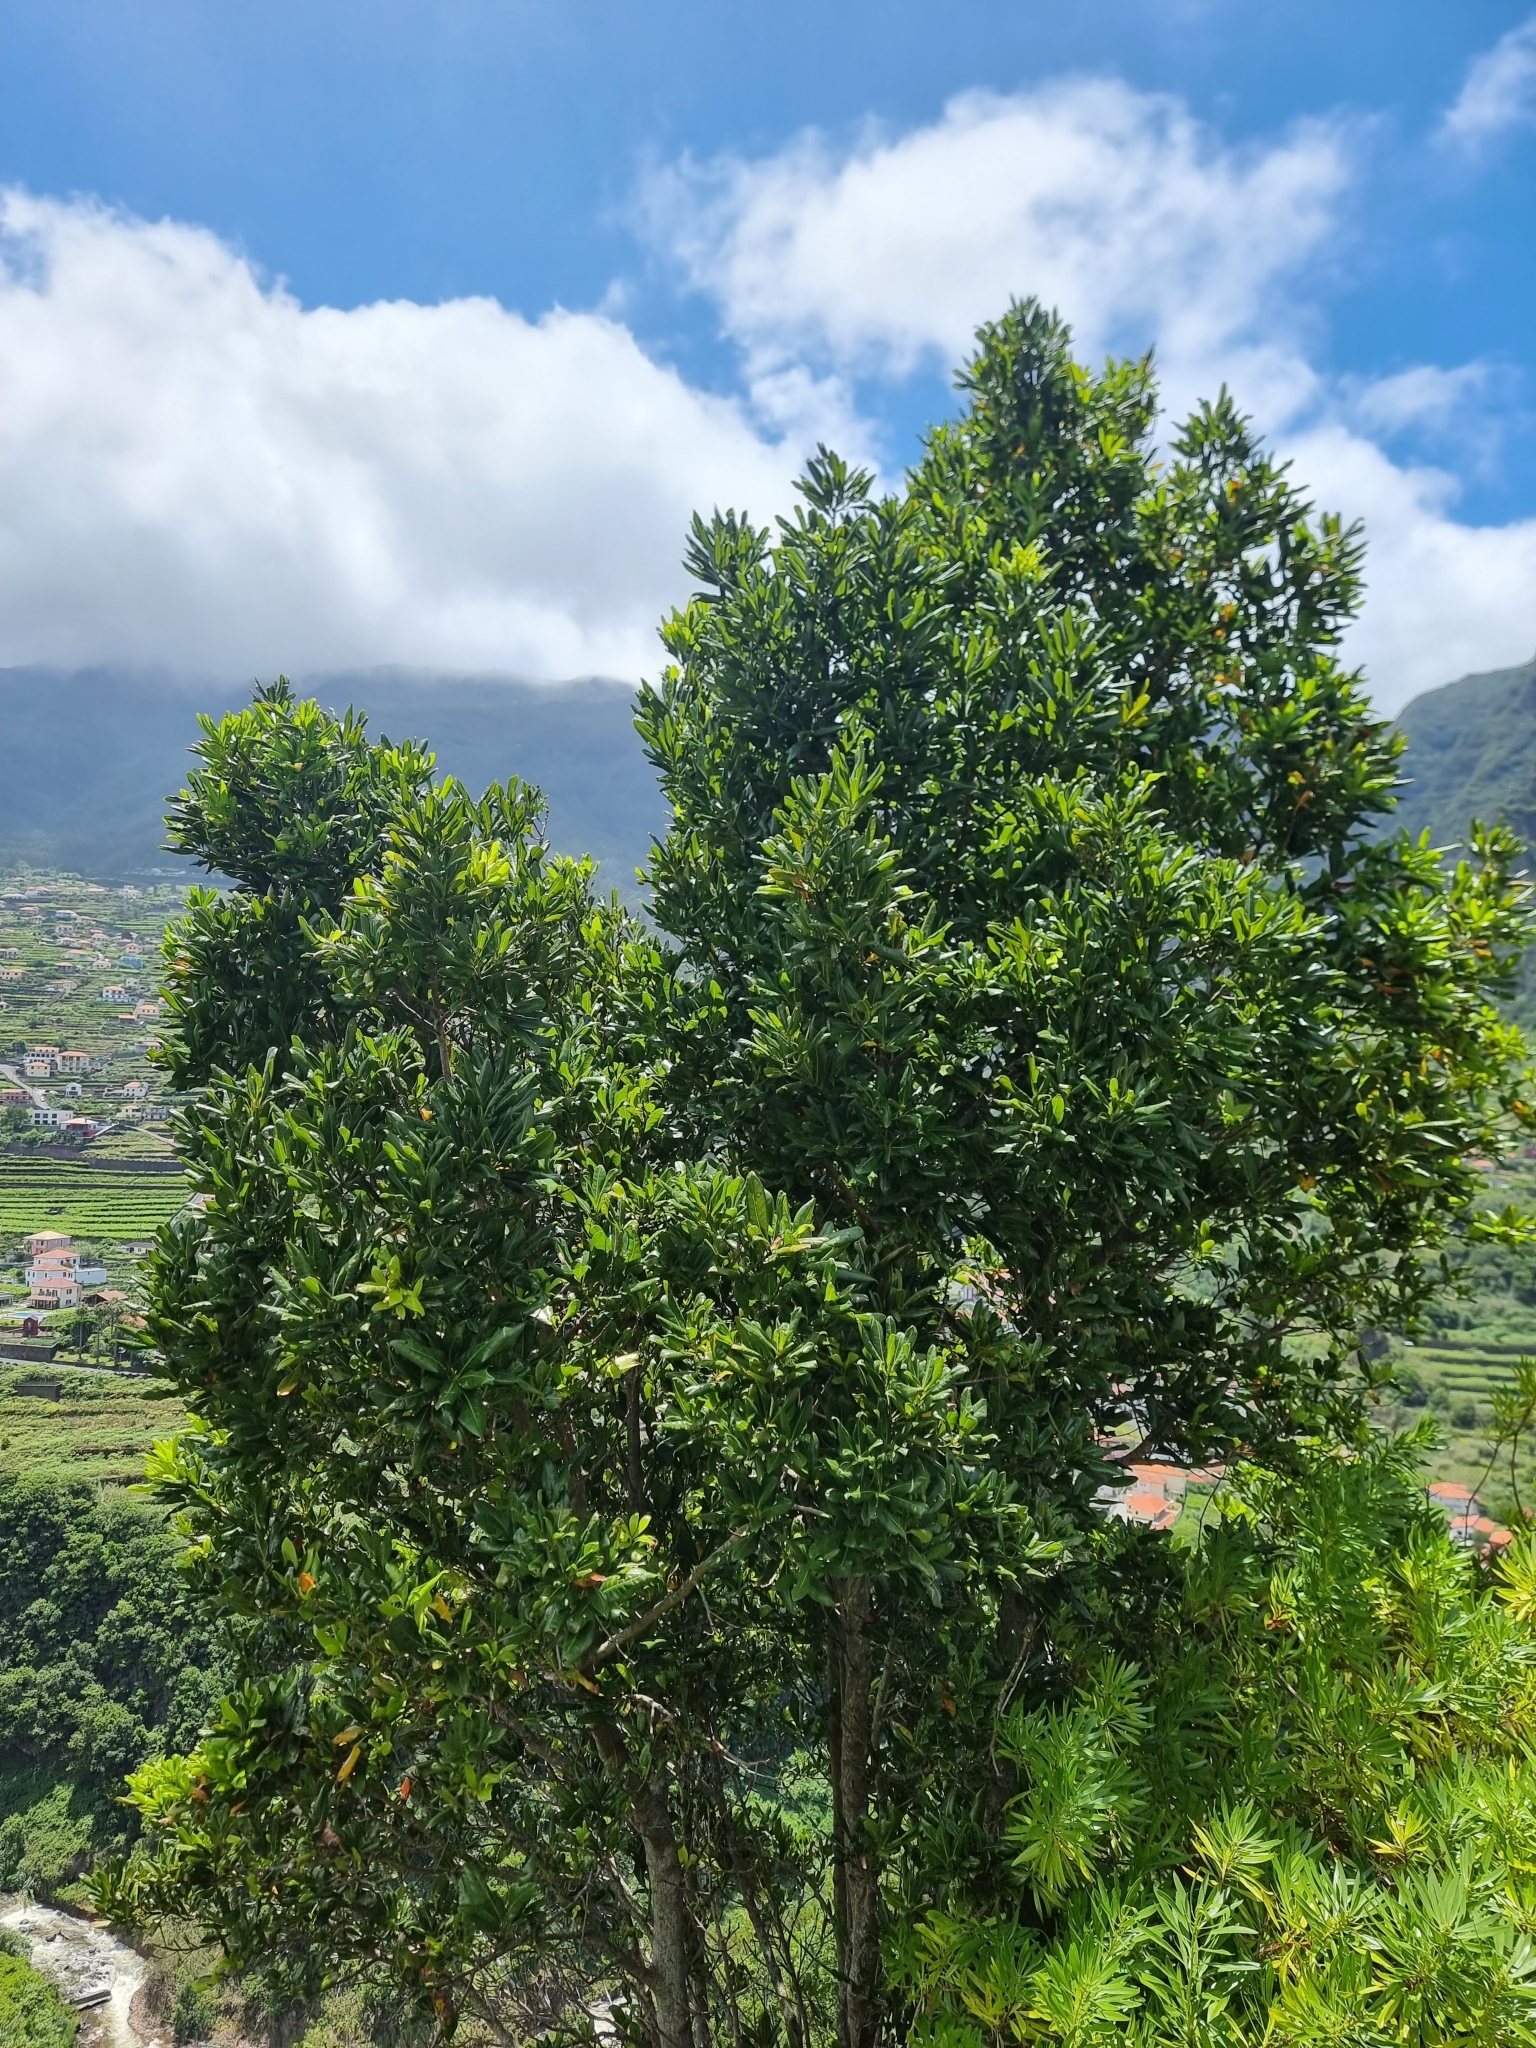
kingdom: Plantae
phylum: Tracheophyta
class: Magnoliopsida
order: Laurales
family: Lauraceae
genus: Apollonias
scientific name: Apollonias barbujana
